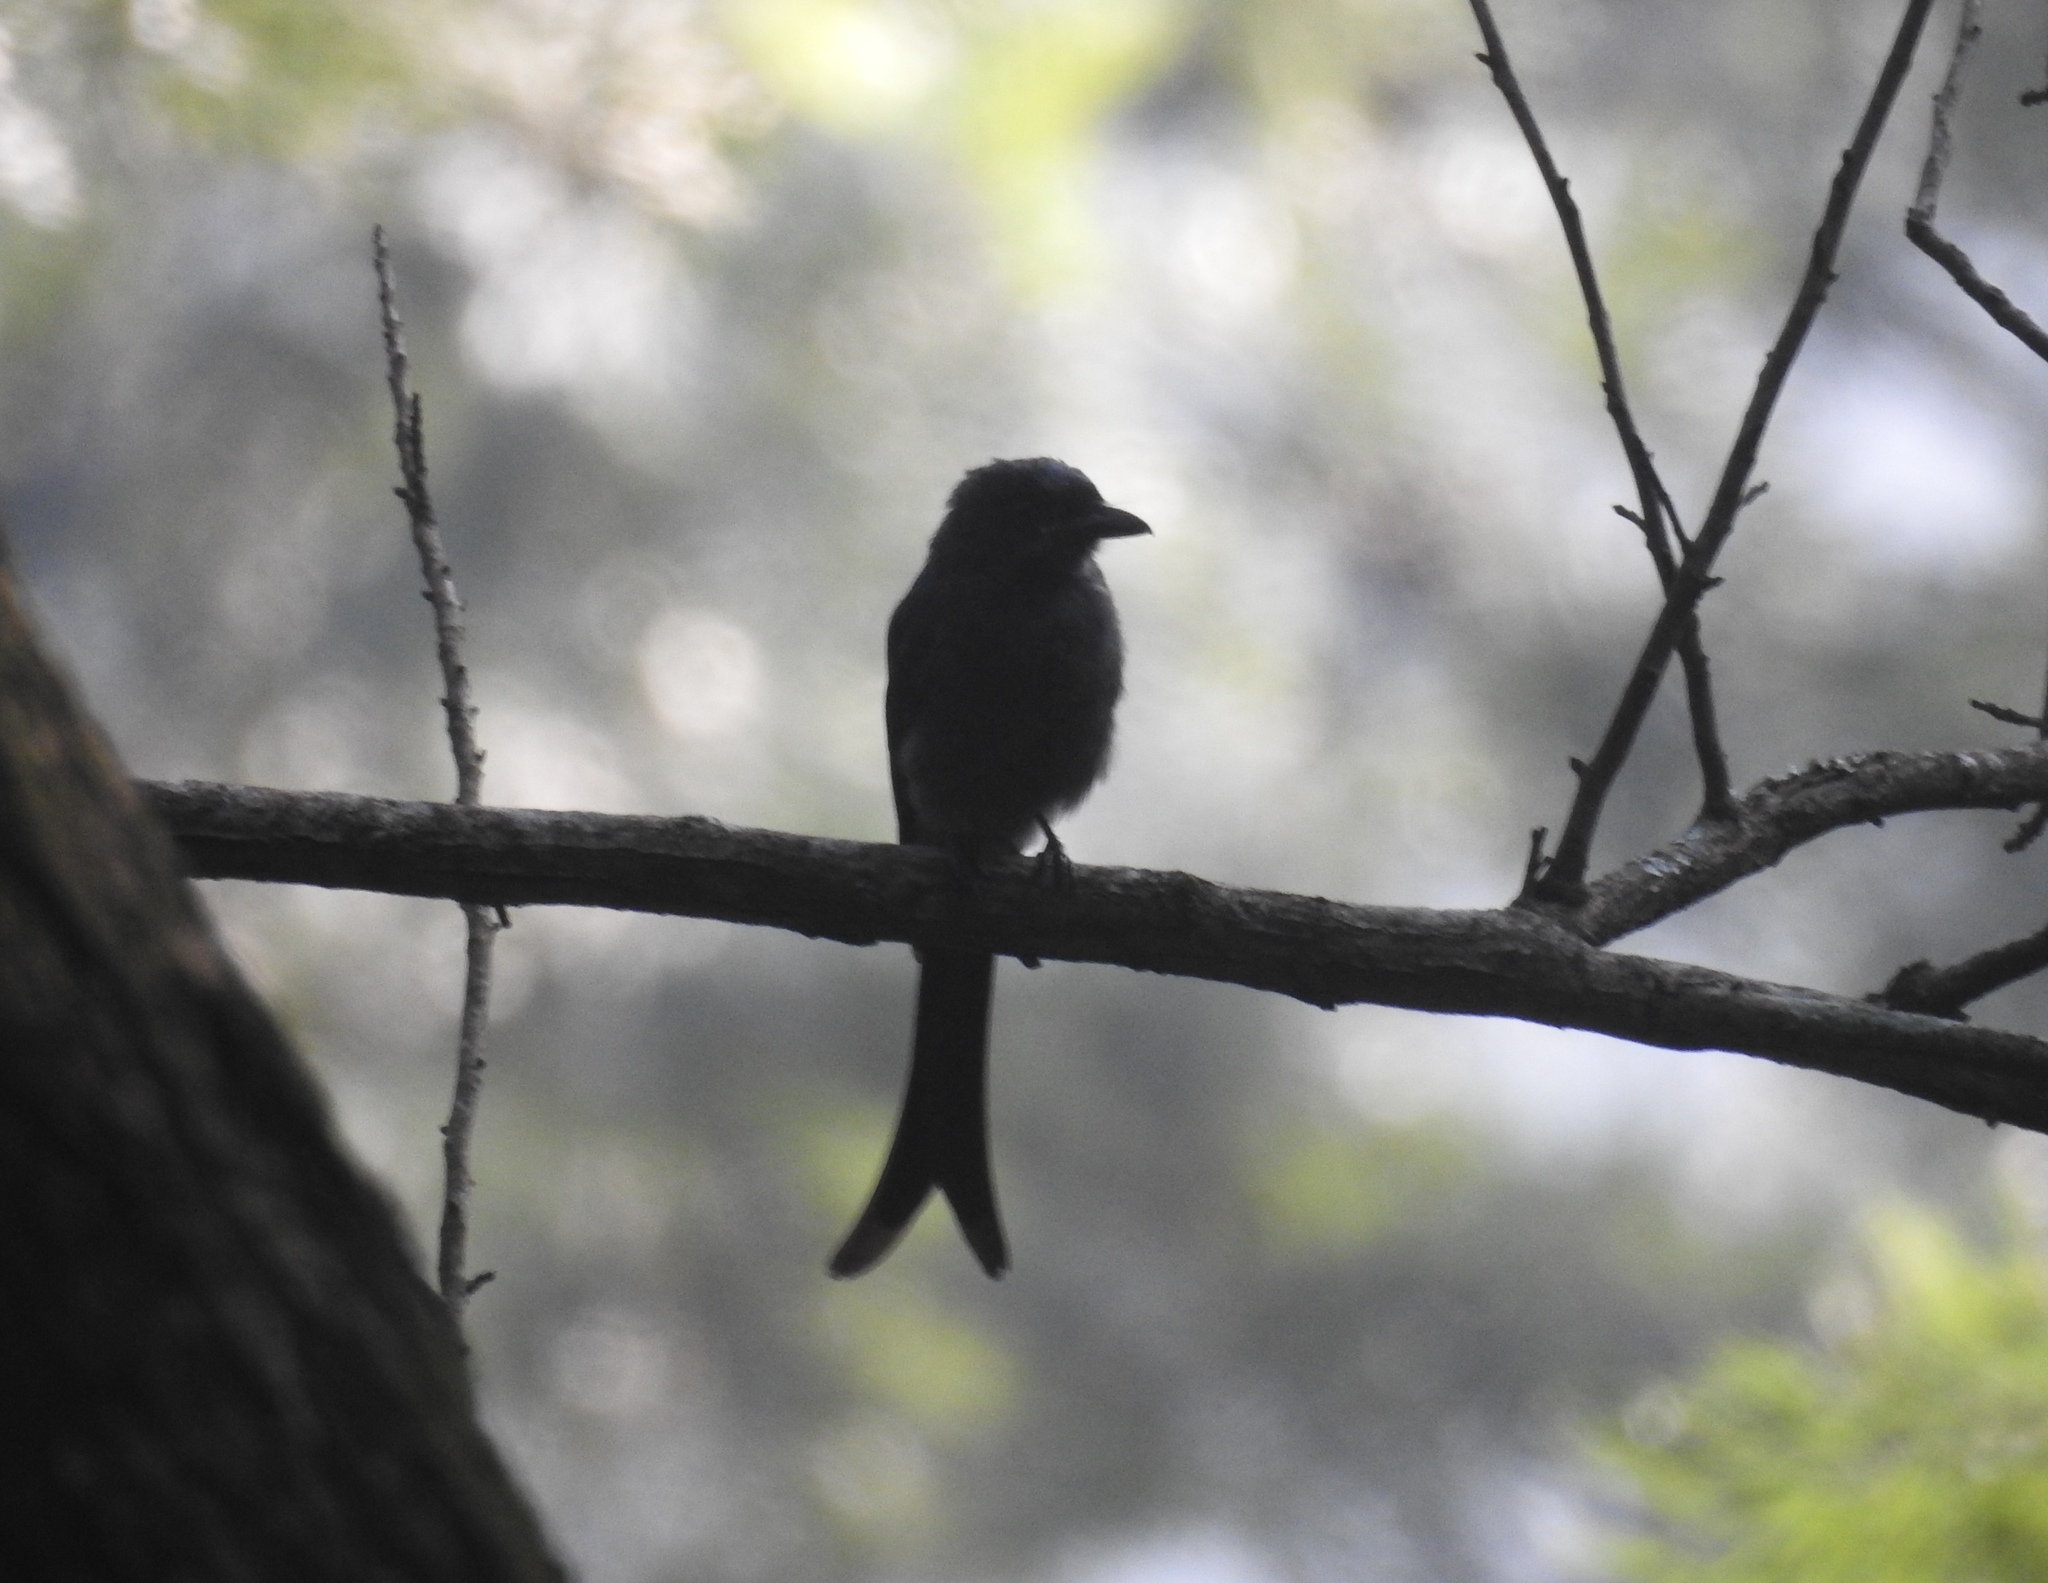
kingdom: Animalia
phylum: Chordata
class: Aves
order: Passeriformes
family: Dicruridae
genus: Dicrurus
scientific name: Dicrurus leucophaeus
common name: Ashy drongo
